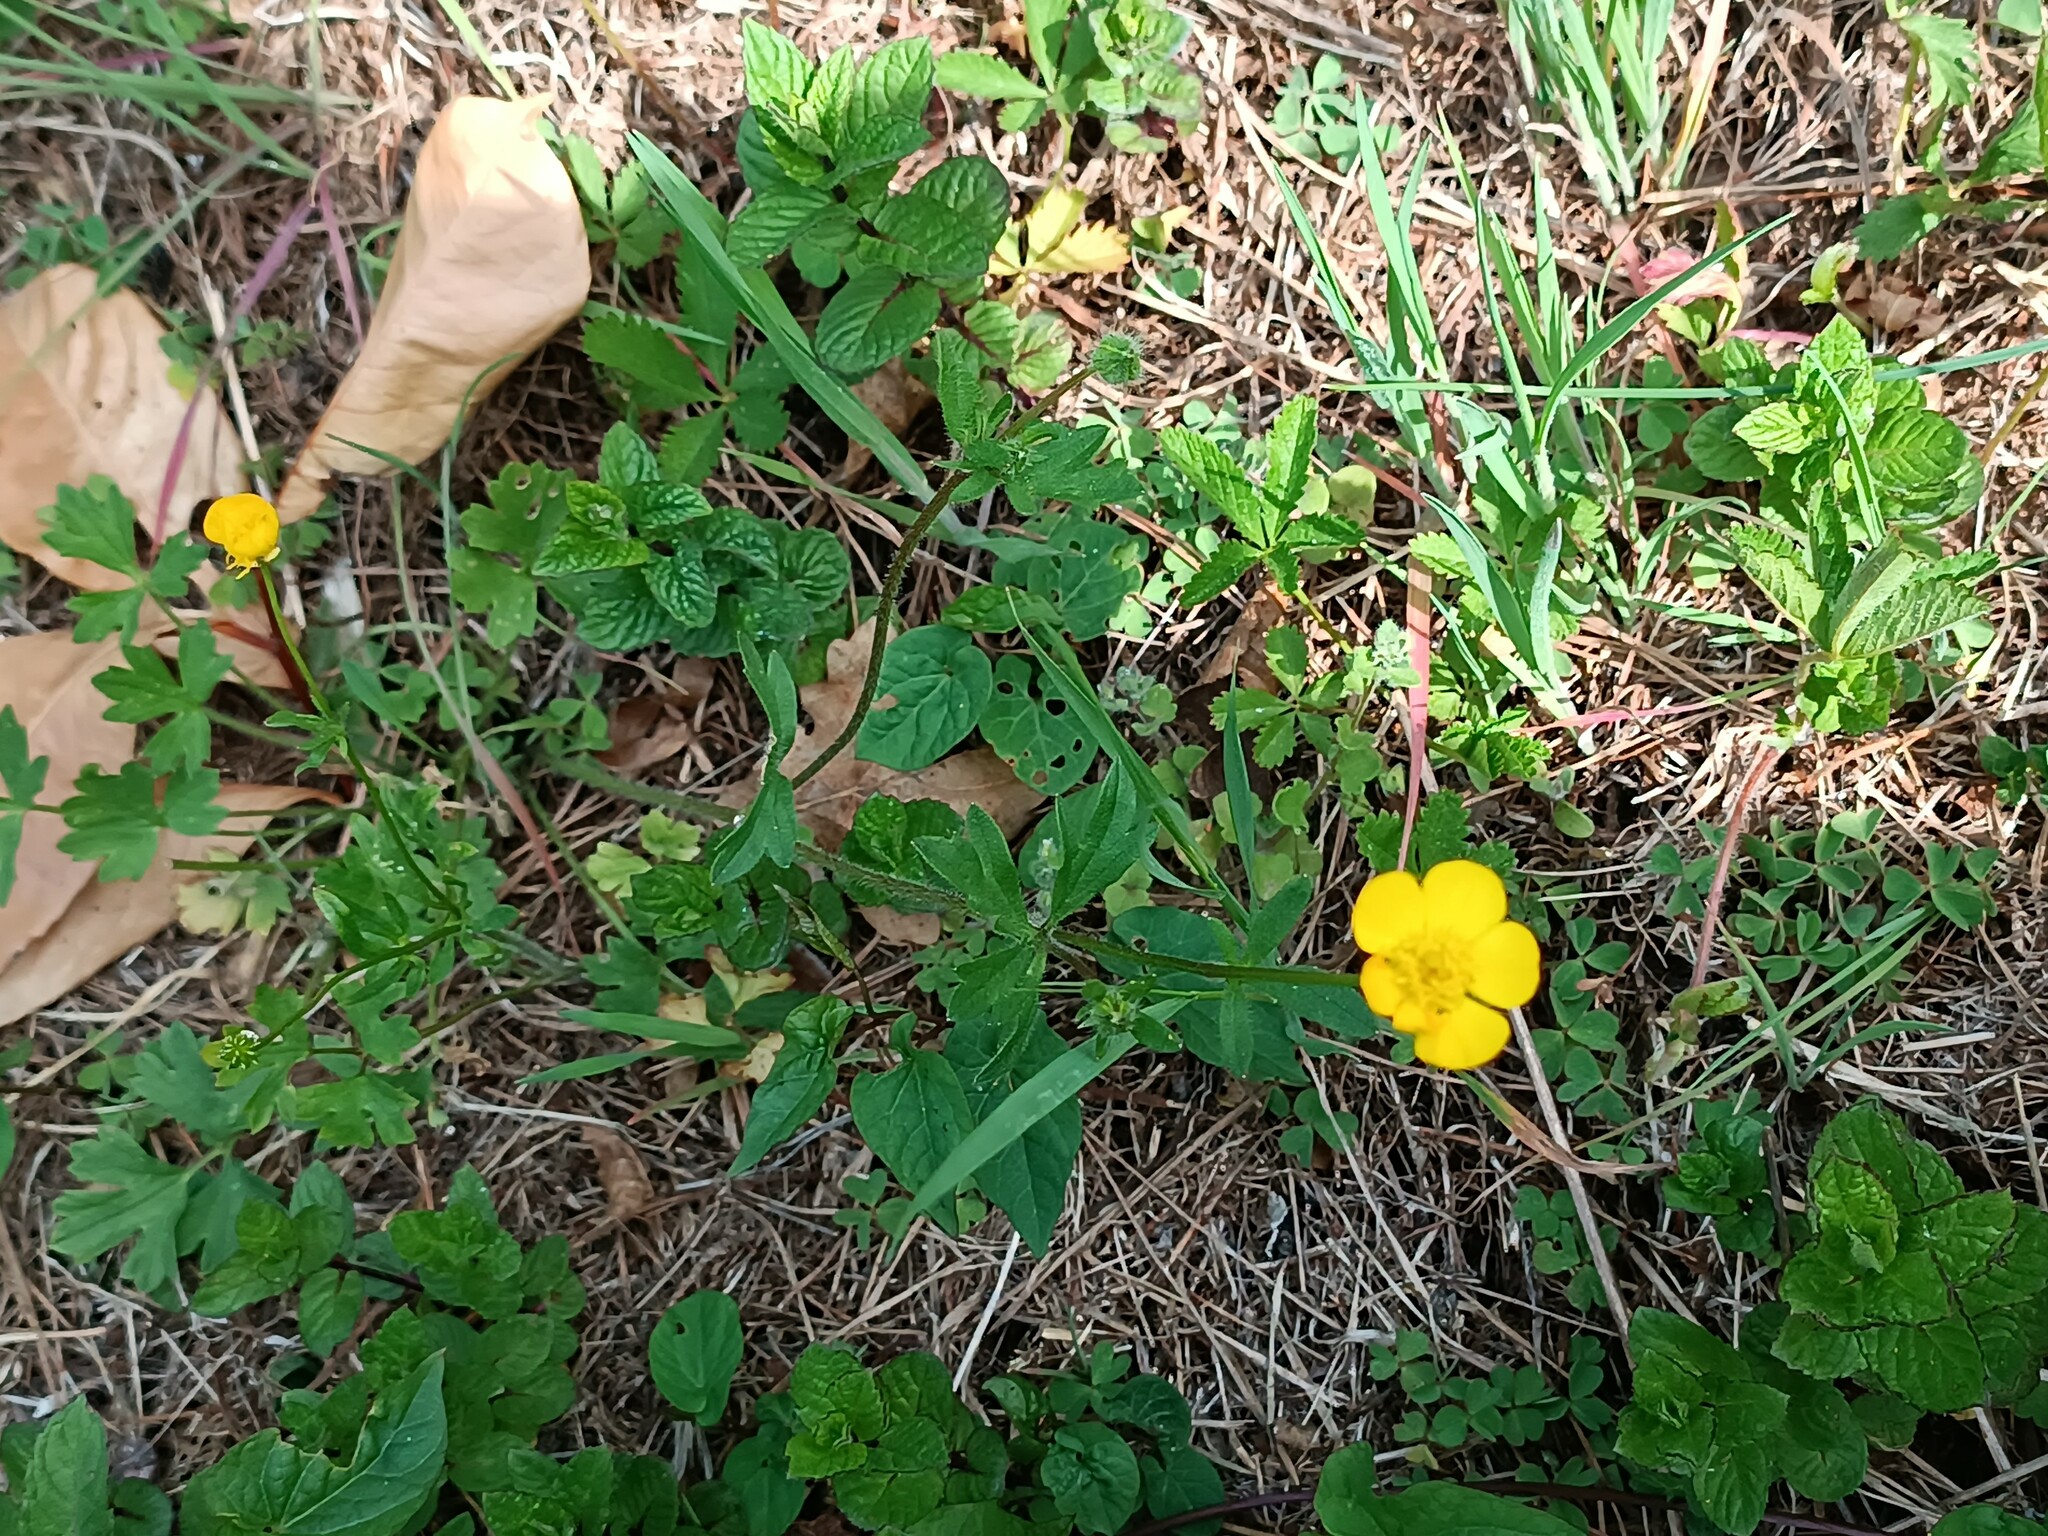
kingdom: Plantae
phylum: Tracheophyta
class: Magnoliopsida
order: Ranunculales
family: Ranunculaceae
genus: Ranunculus
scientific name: Ranunculus repens
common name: Creeping buttercup
